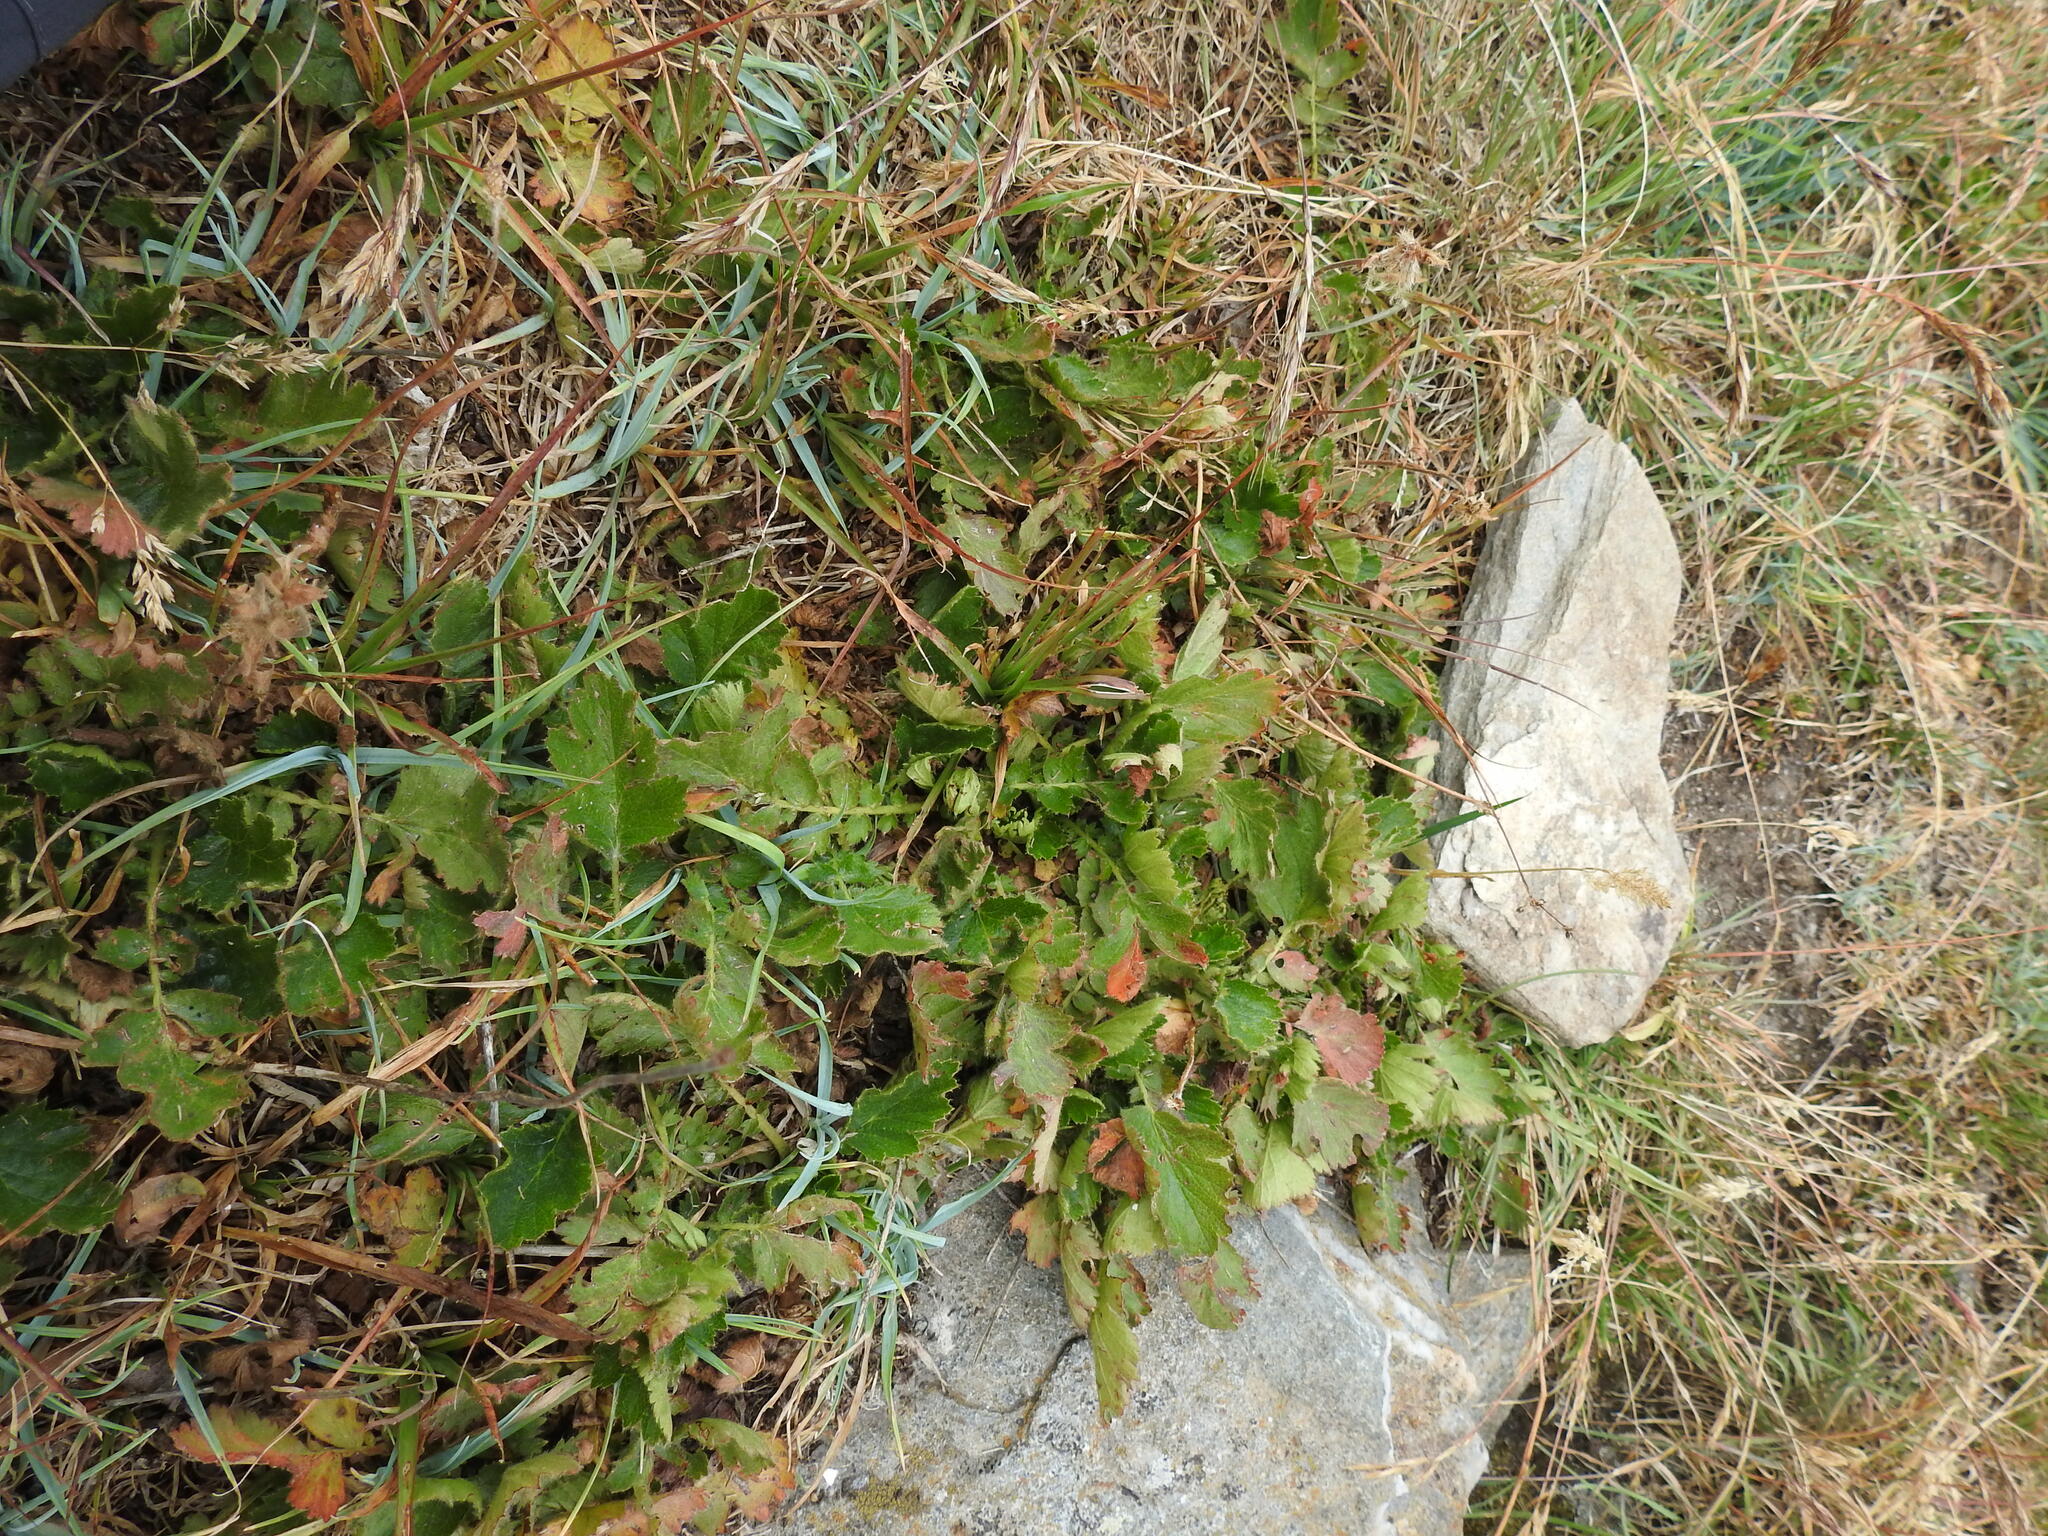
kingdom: Plantae
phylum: Tracheophyta
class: Magnoliopsida
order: Rosales
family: Rosaceae
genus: Geum
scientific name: Geum montanum
